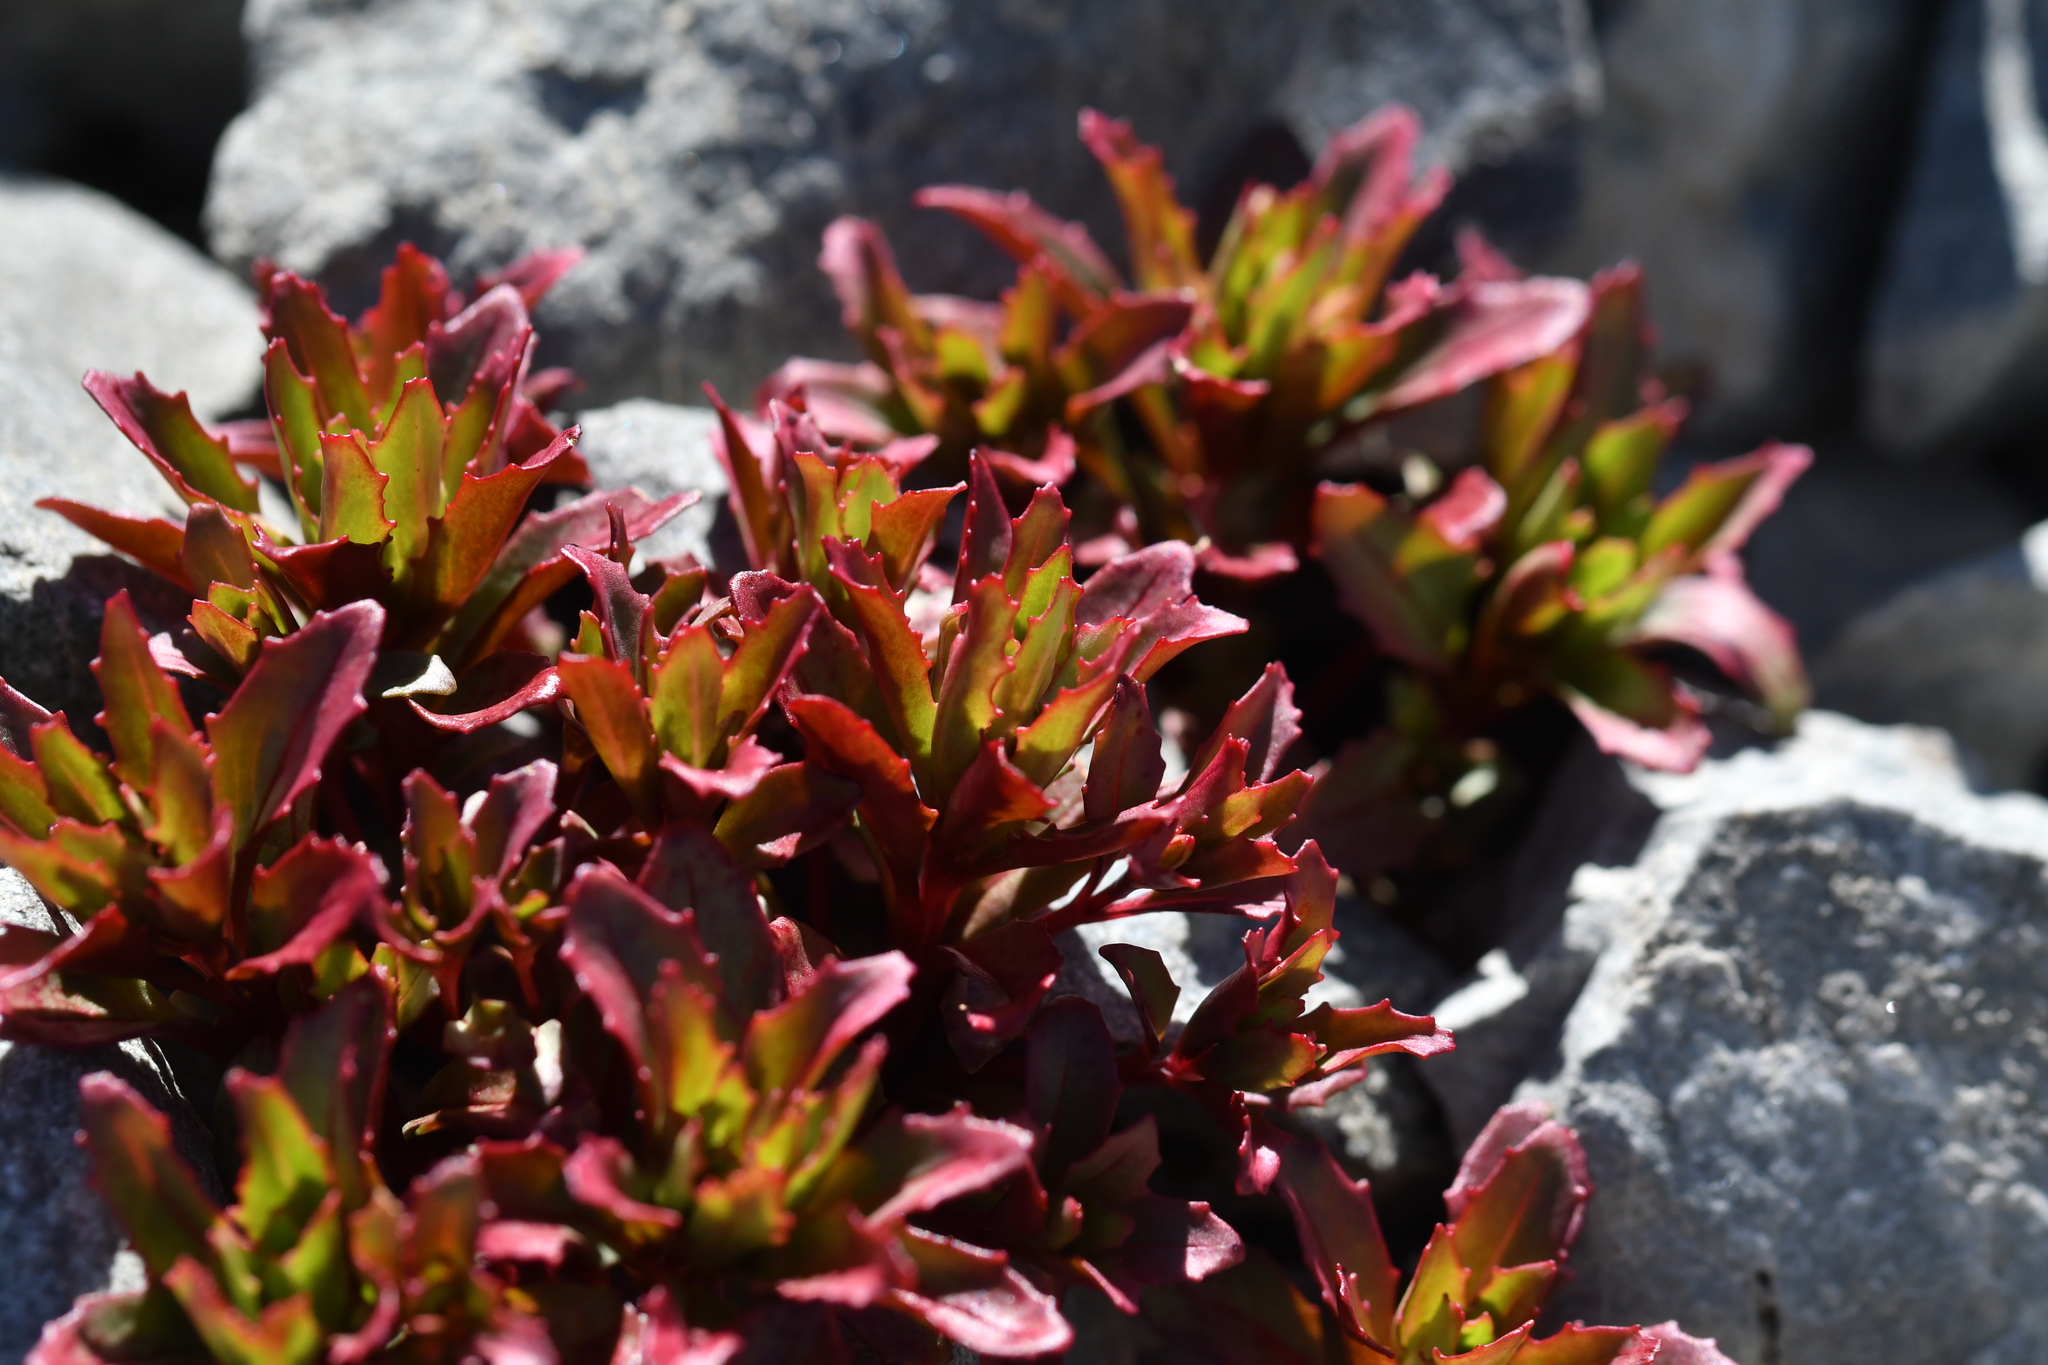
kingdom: Plantae
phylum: Tracheophyta
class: Magnoliopsida
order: Myrtales
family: Onagraceae
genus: Epilobium
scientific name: Epilobium pycnostachyum
